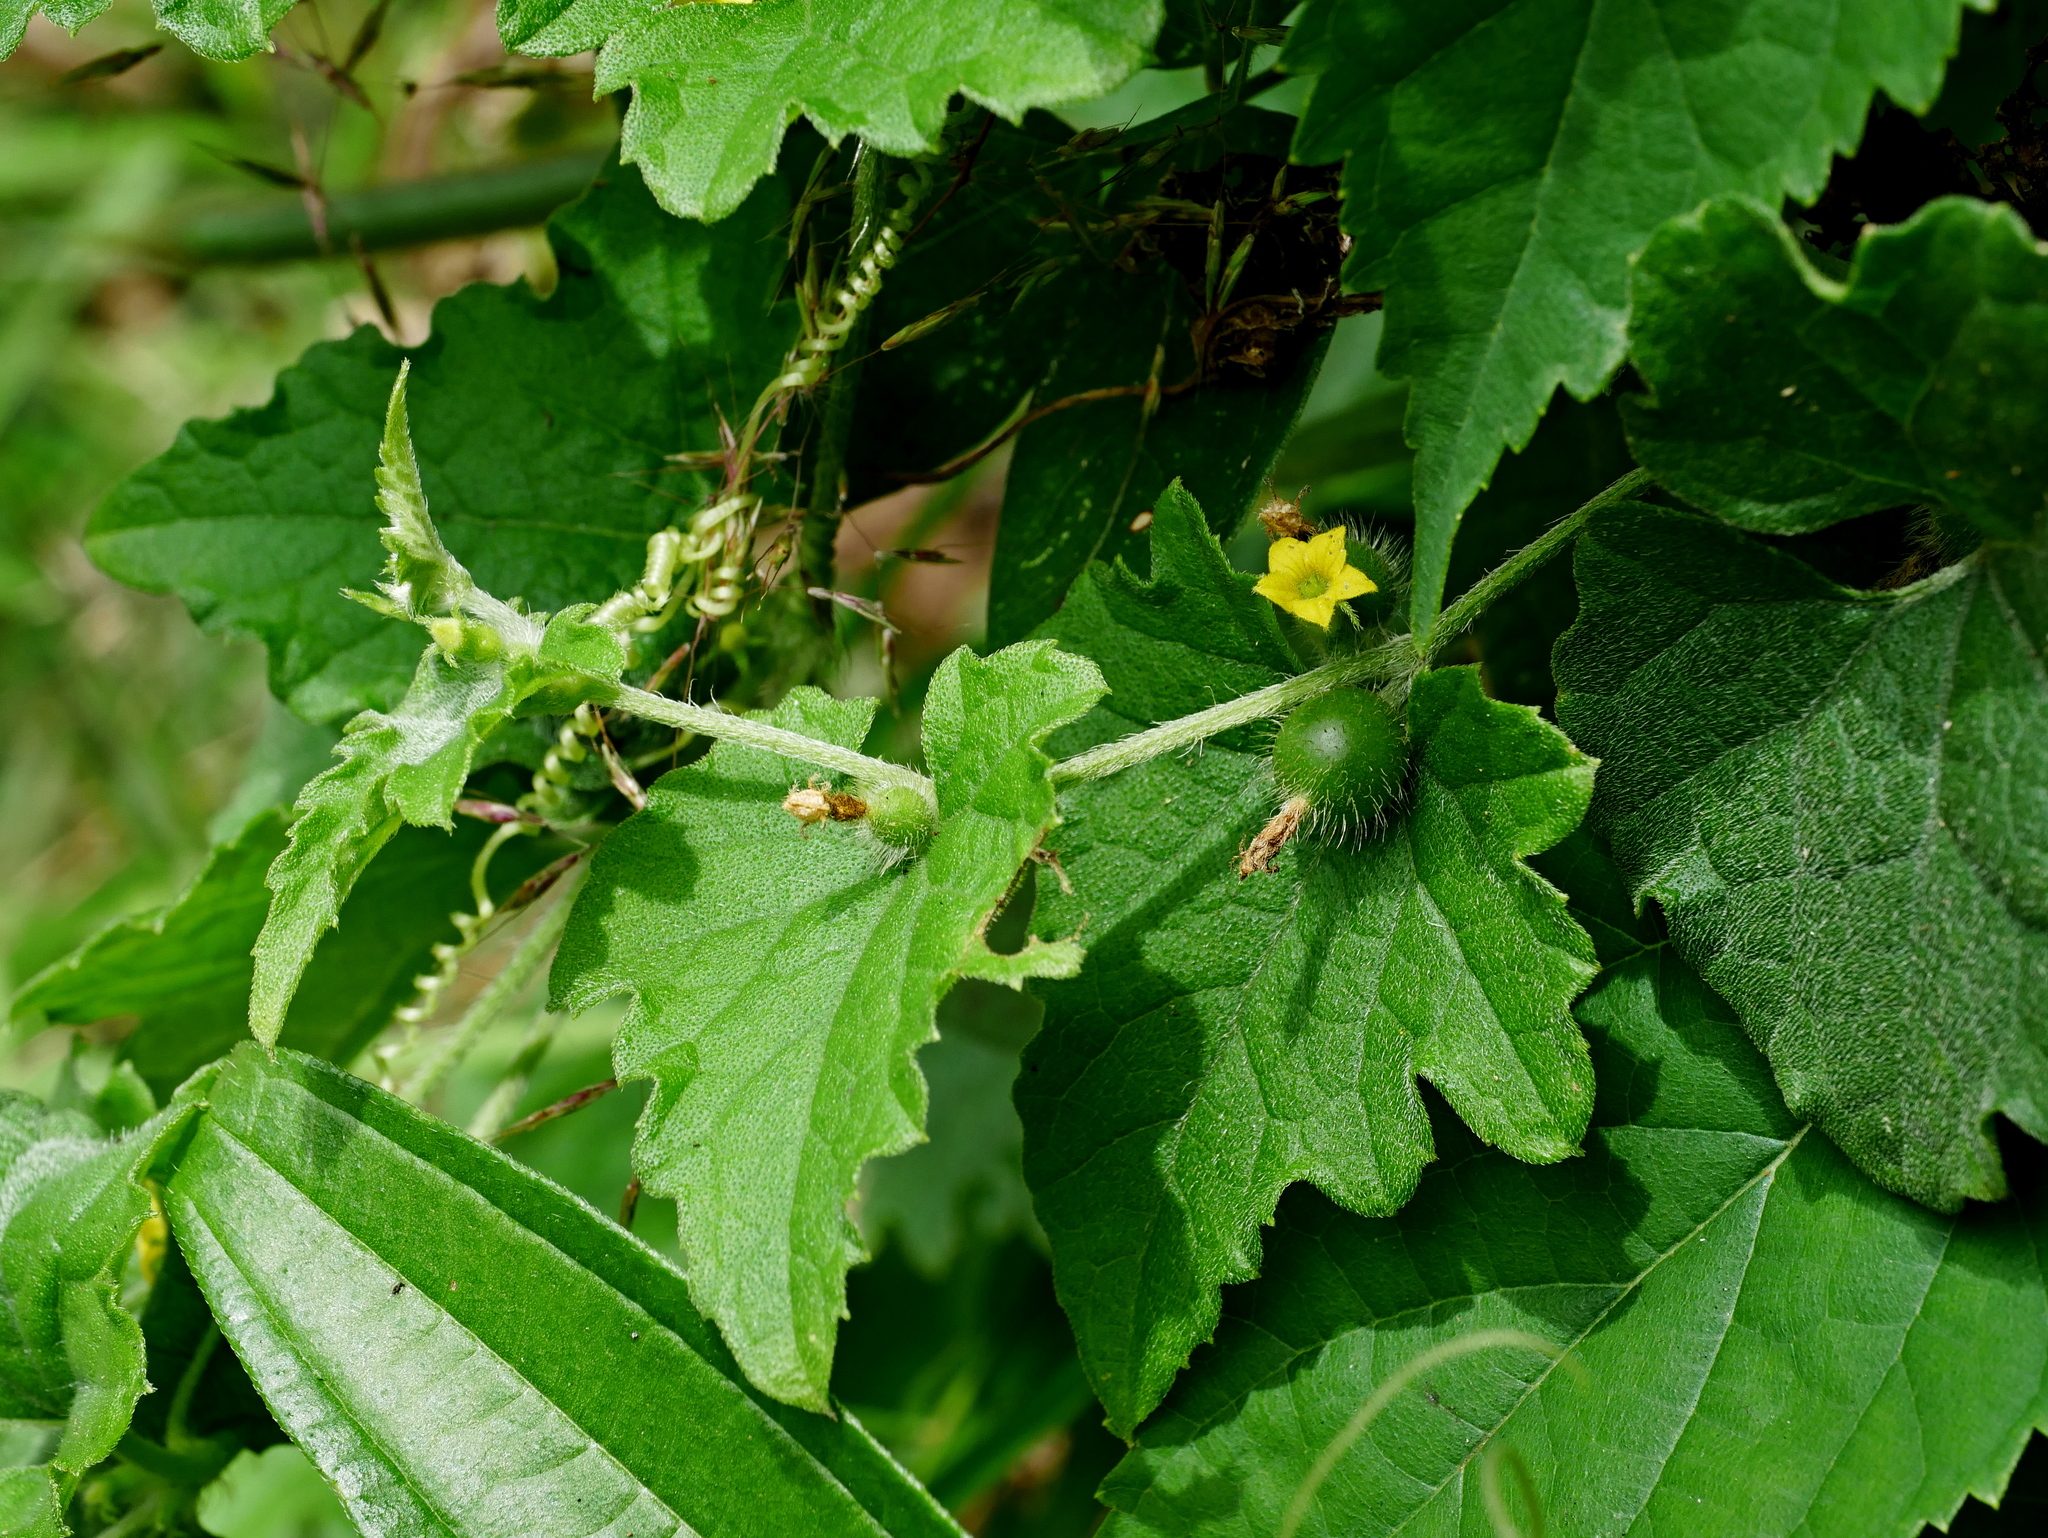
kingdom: Plantae
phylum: Tracheophyta
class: Magnoliopsida
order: Cucurbitales
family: Cucurbitaceae
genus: Cucumis
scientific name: Cucumis maderaspatanus
